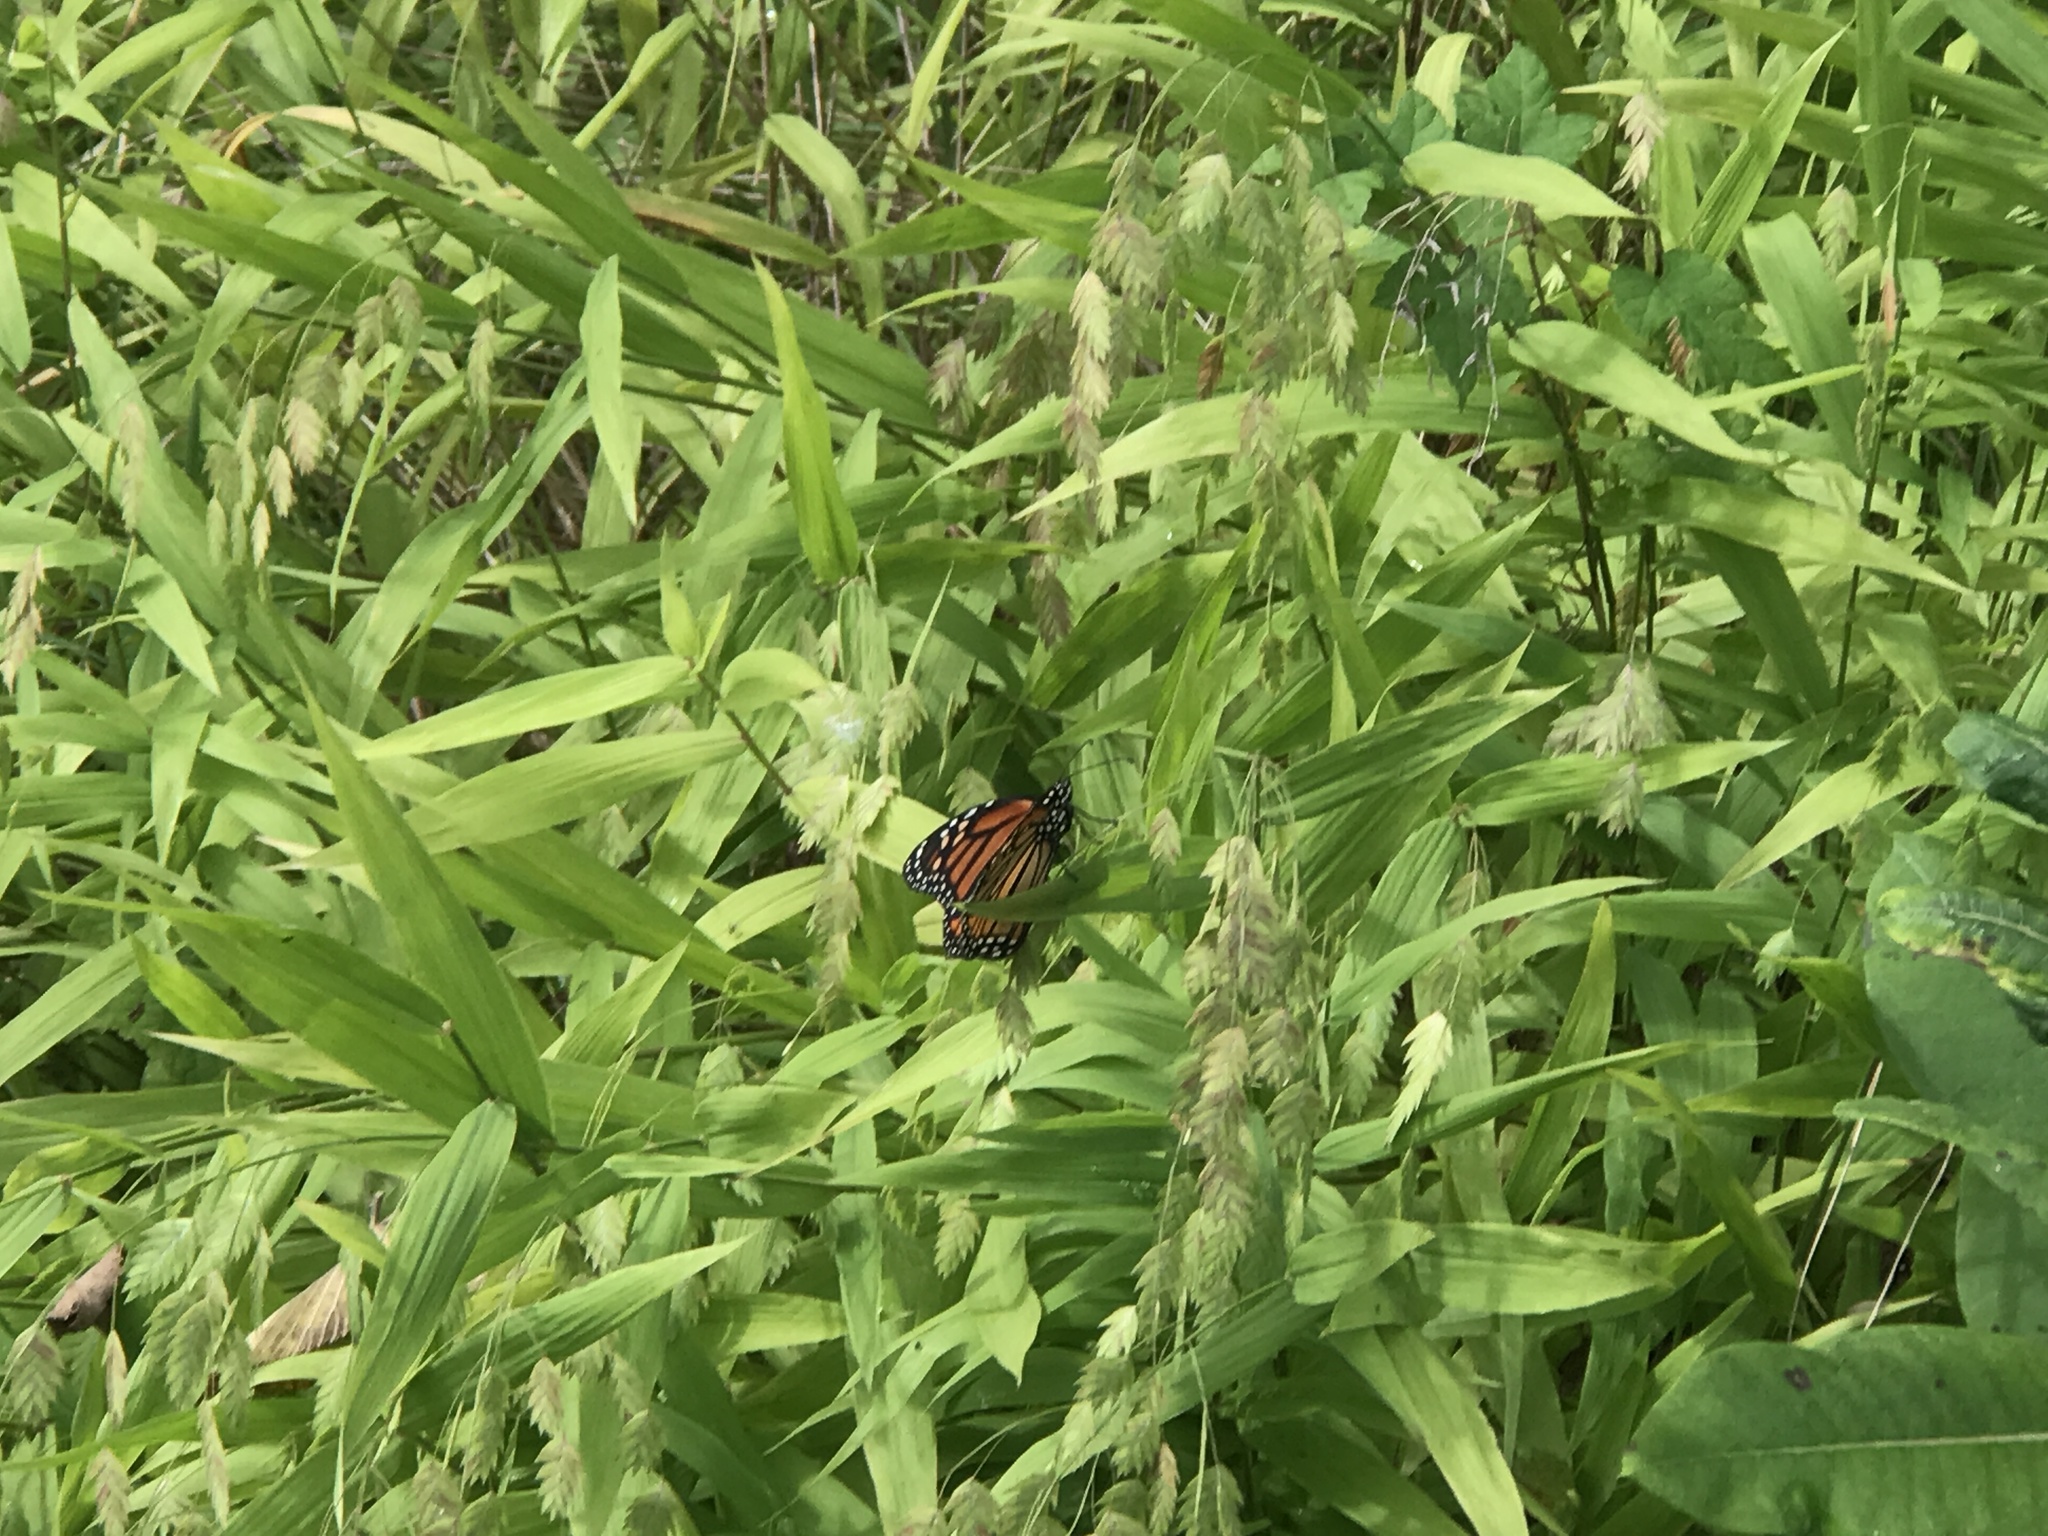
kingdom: Animalia
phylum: Arthropoda
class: Insecta
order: Lepidoptera
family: Nymphalidae
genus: Danaus
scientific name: Danaus plexippus
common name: Monarch
